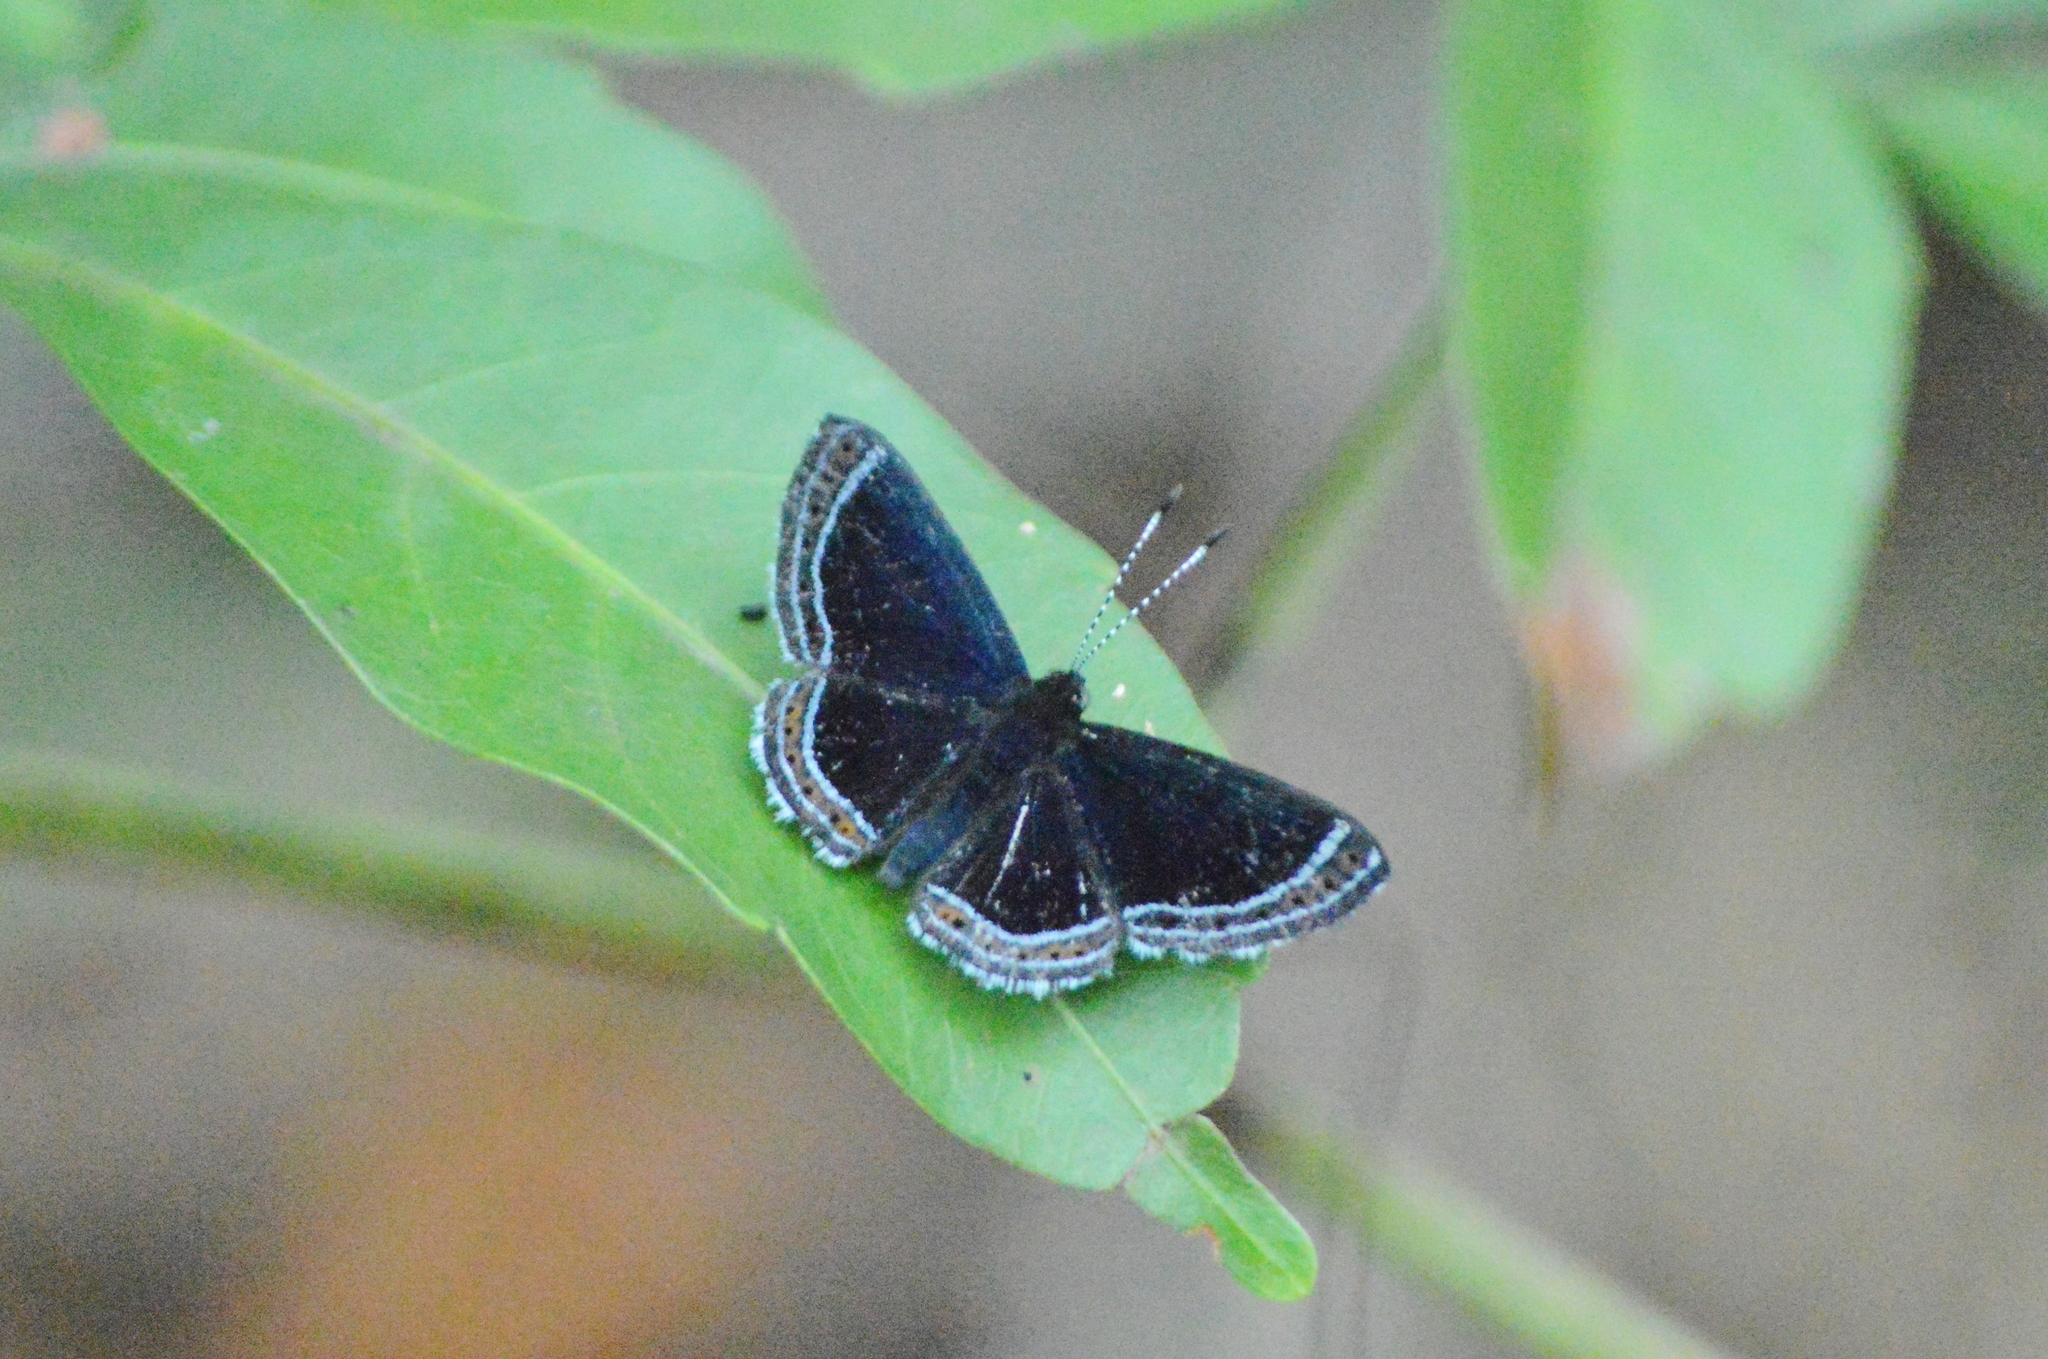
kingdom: Animalia
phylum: Arthropoda
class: Insecta
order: Lepidoptera
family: Riodinidae
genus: Detritivora
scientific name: Detritivora cleonus
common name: Cleonus metalmark
